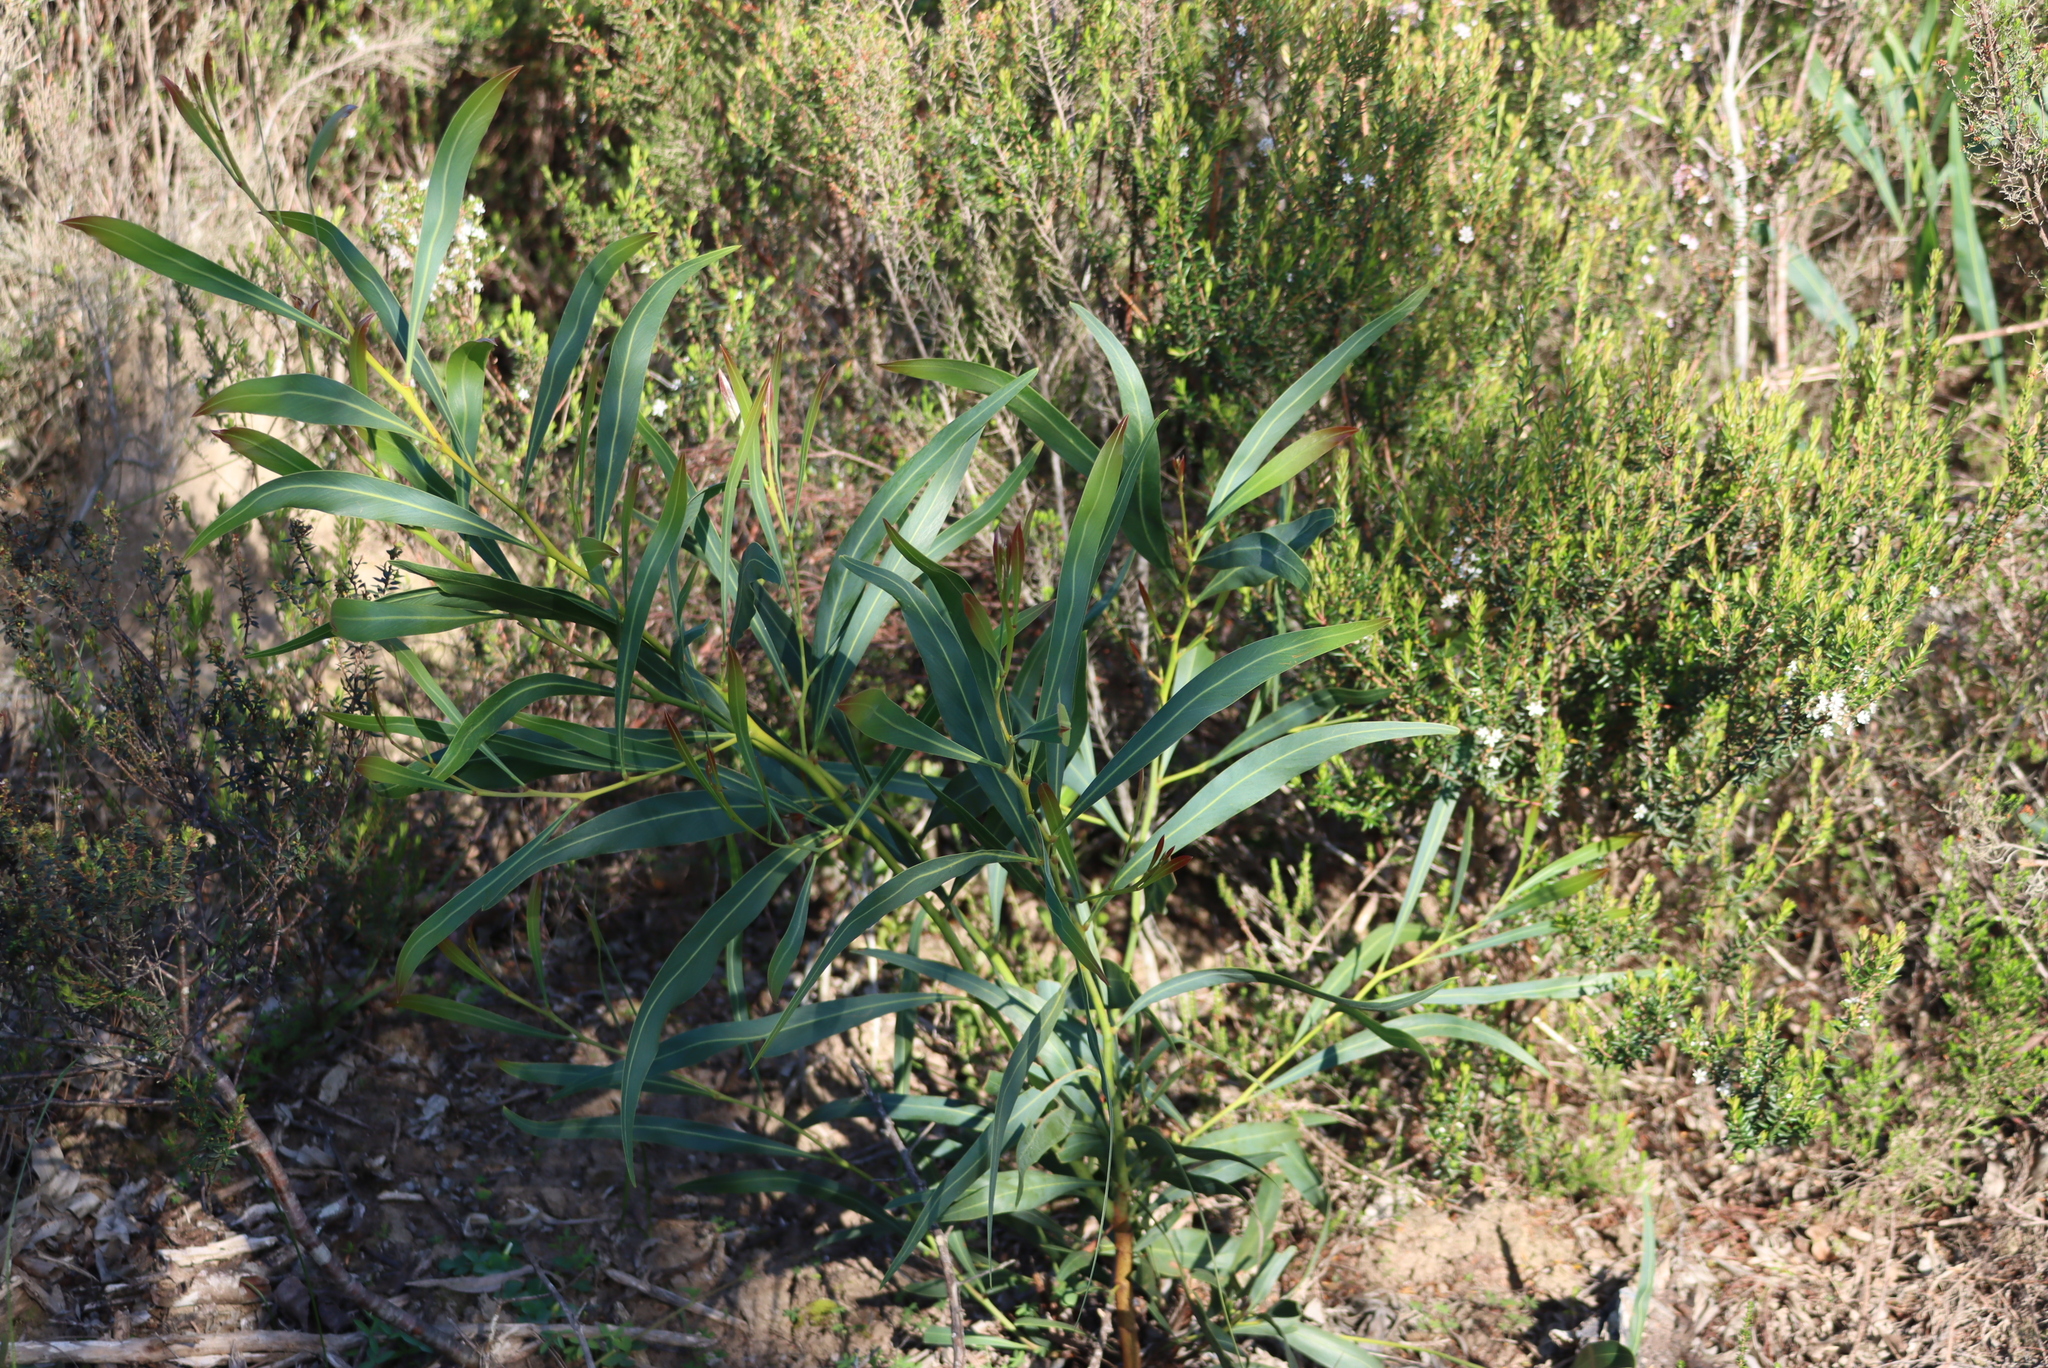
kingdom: Plantae
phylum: Tracheophyta
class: Magnoliopsida
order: Fabales
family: Fabaceae
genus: Acacia
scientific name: Acacia saligna
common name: Orange wattle
